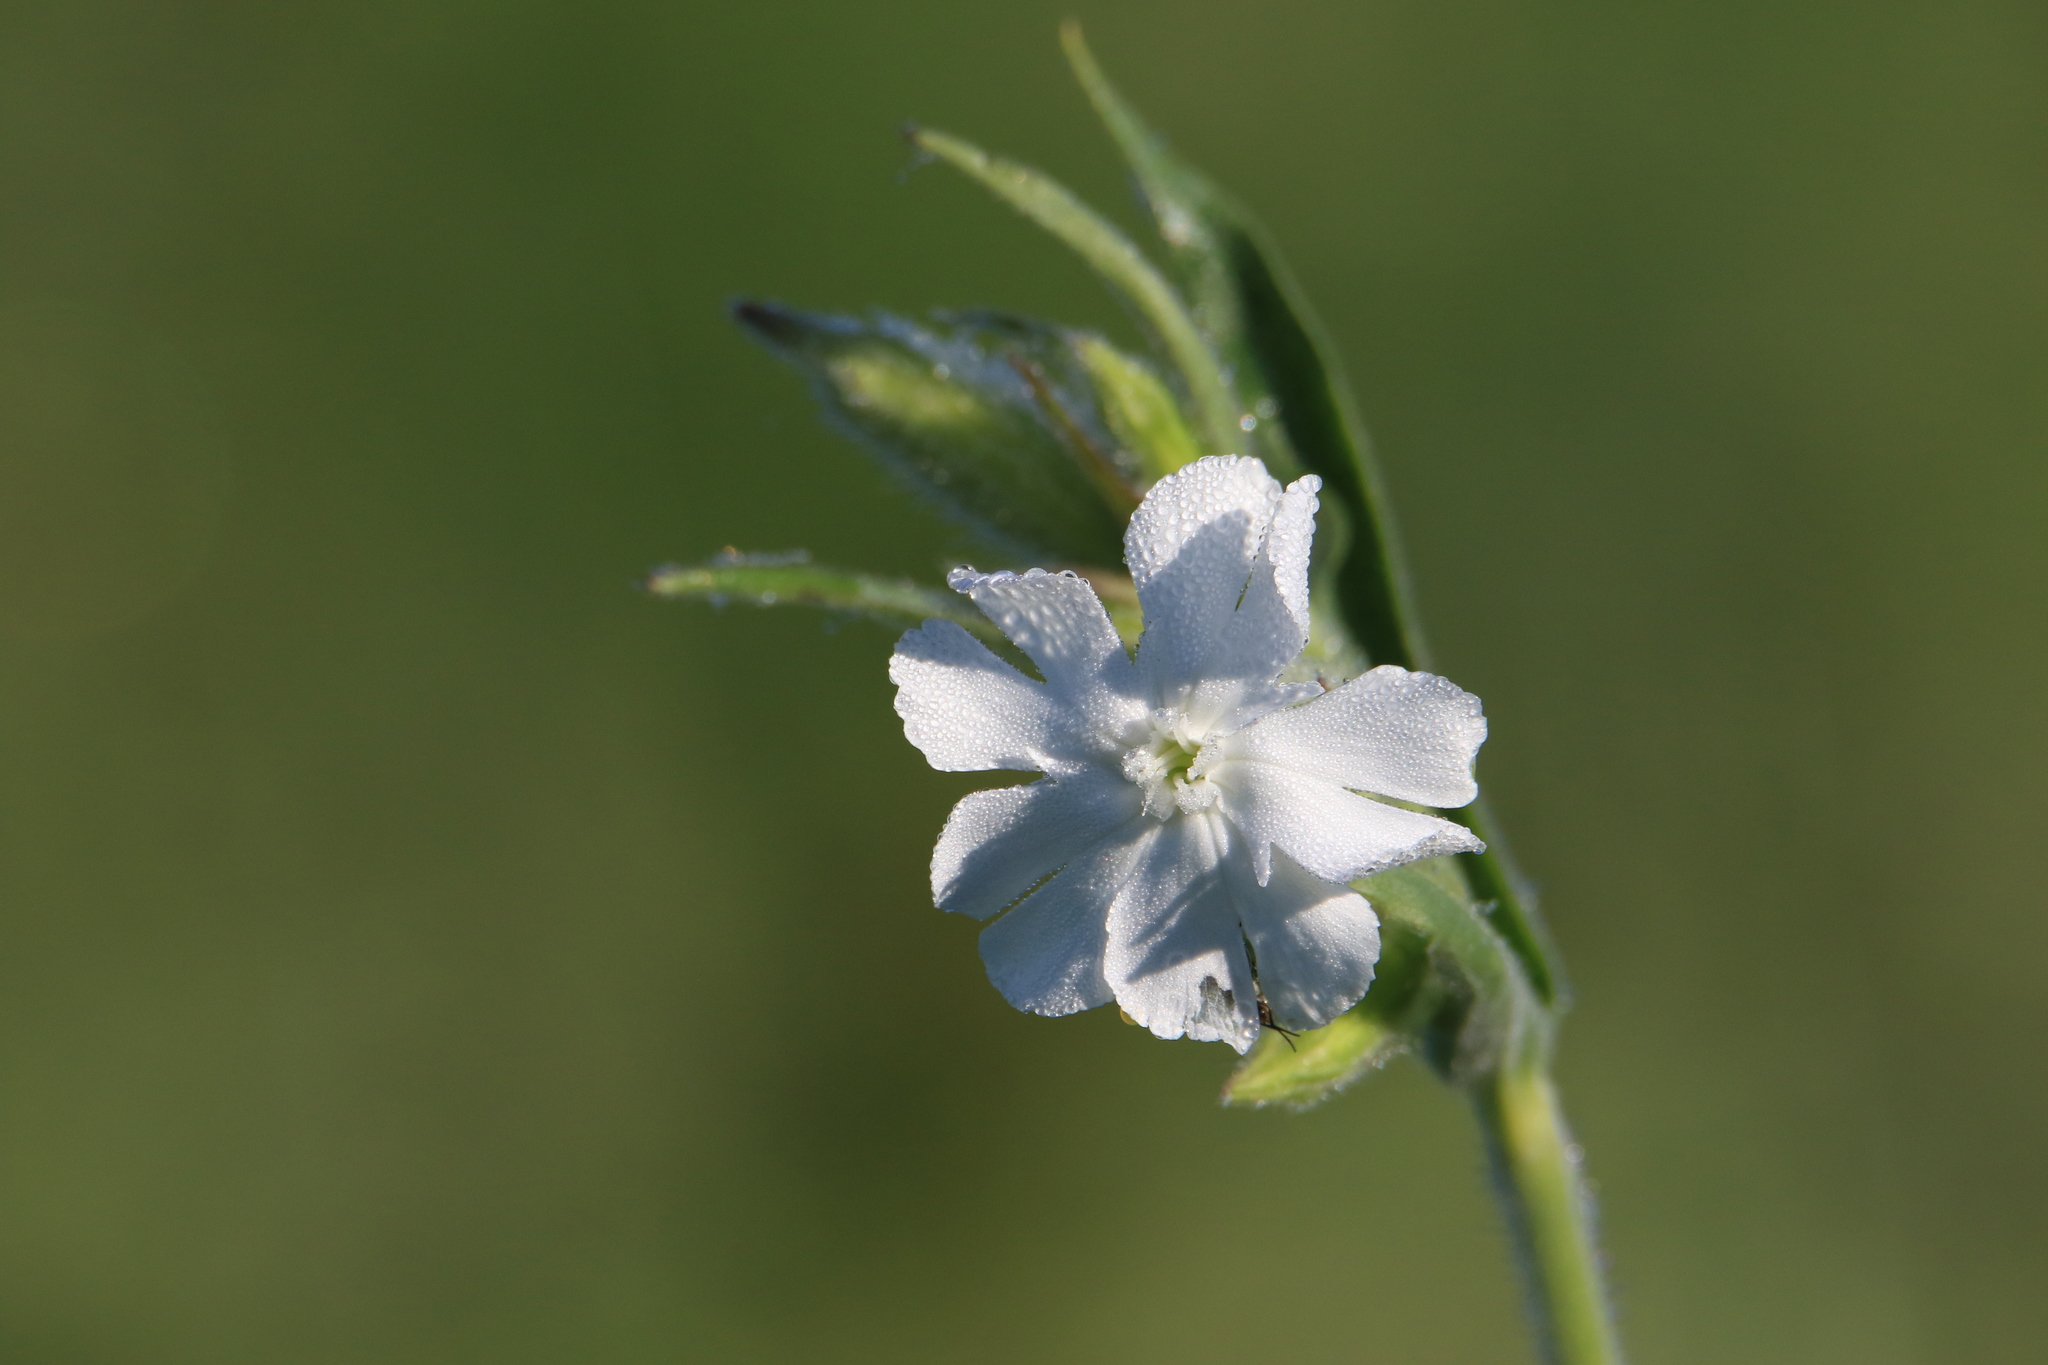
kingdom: Plantae
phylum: Tracheophyta
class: Magnoliopsida
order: Caryophyllales
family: Caryophyllaceae
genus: Silene
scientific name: Silene latifolia
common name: White campion
